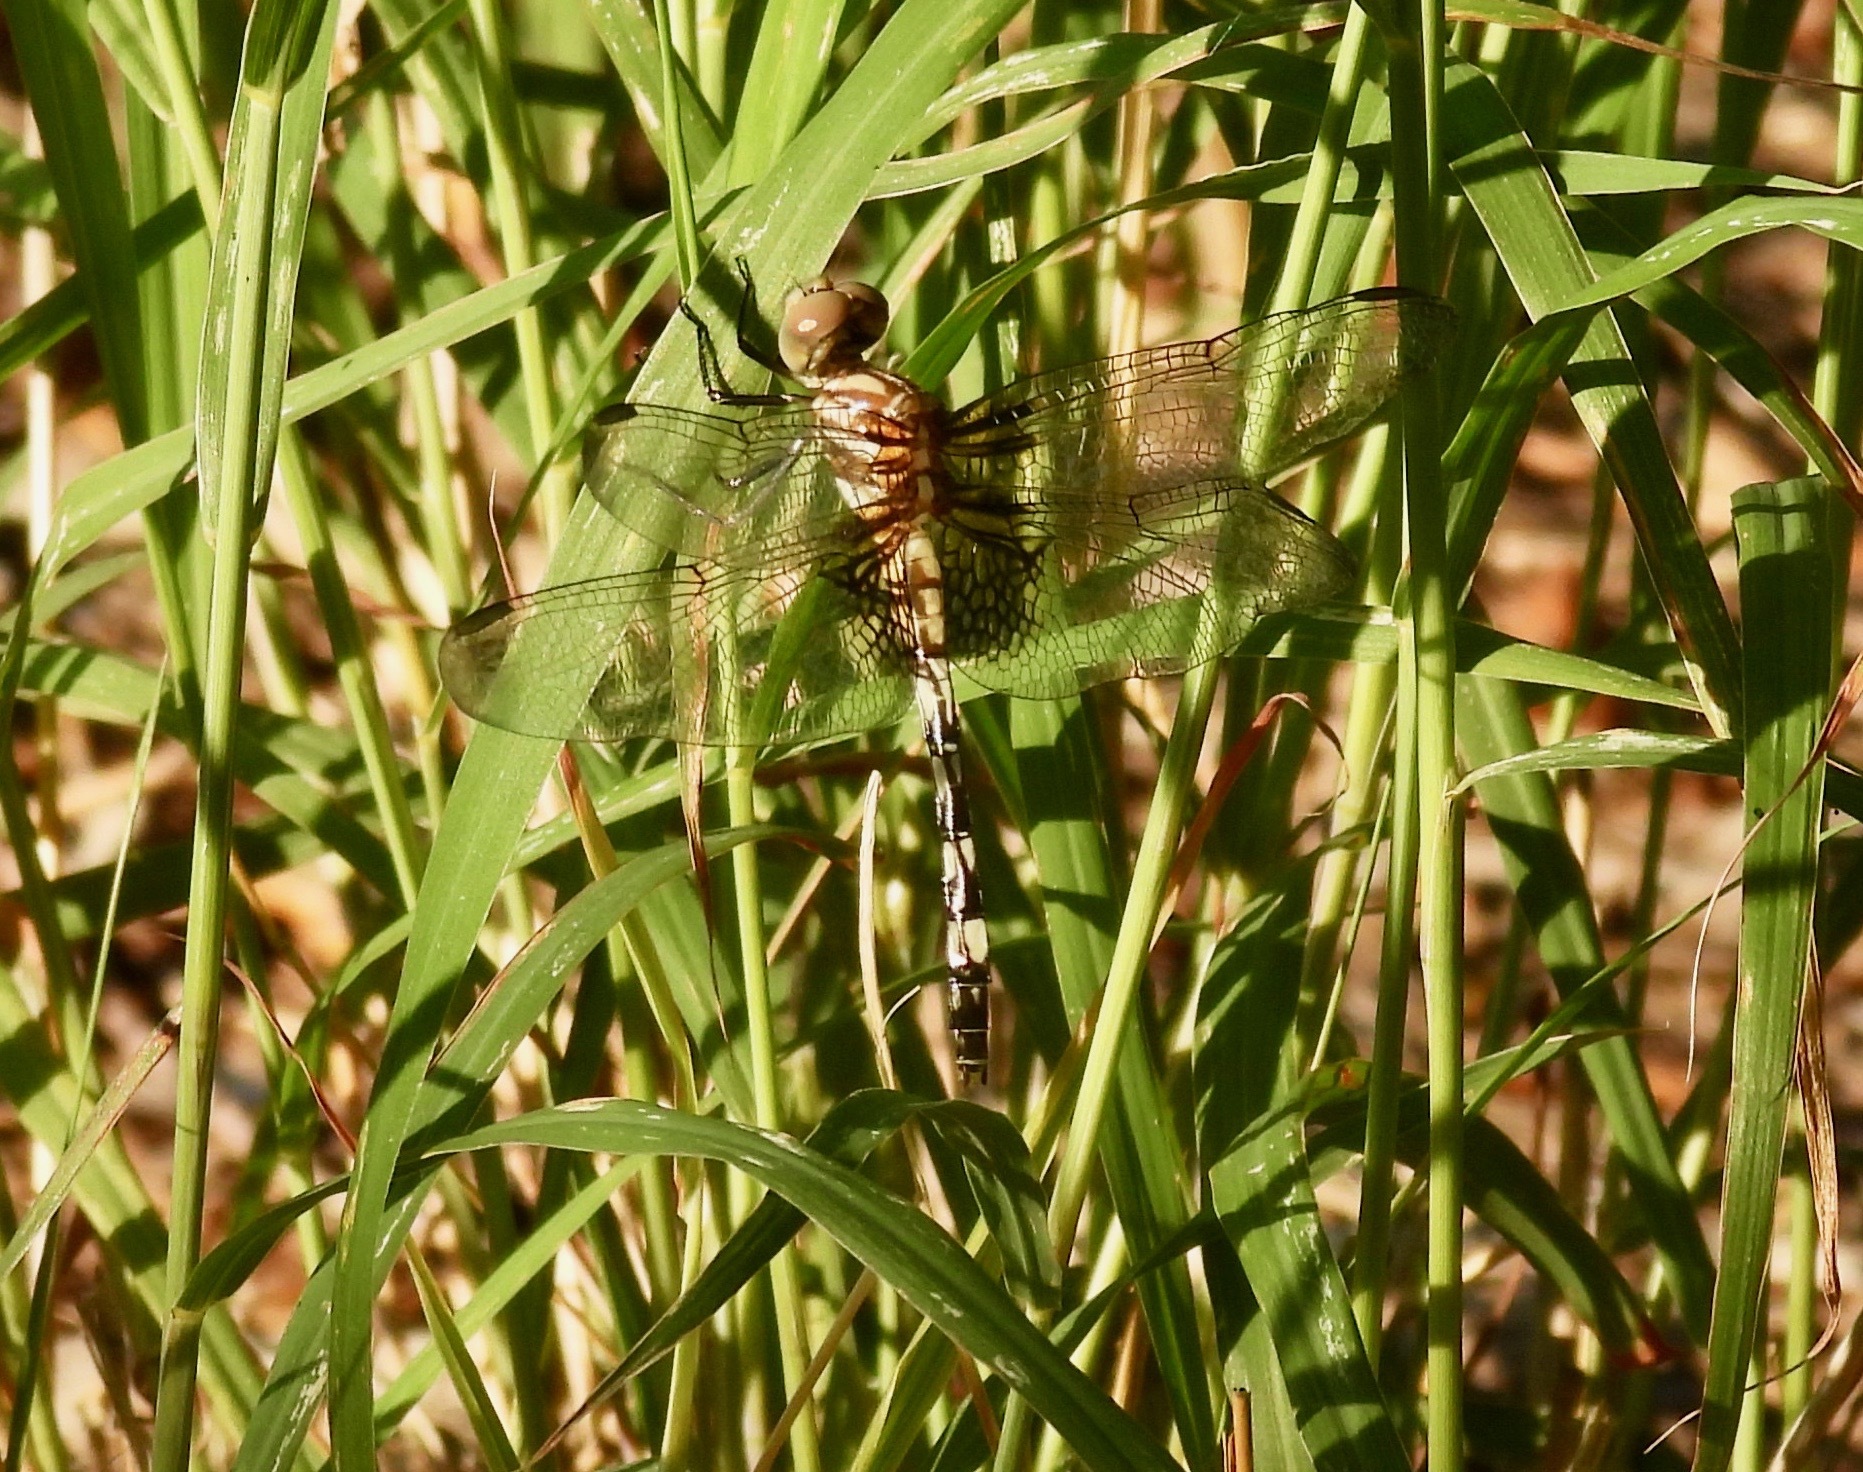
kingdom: Animalia
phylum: Arthropoda
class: Insecta
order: Odonata
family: Libellulidae
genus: Dythemis
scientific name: Dythemis fugax
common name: Checkered setwing
